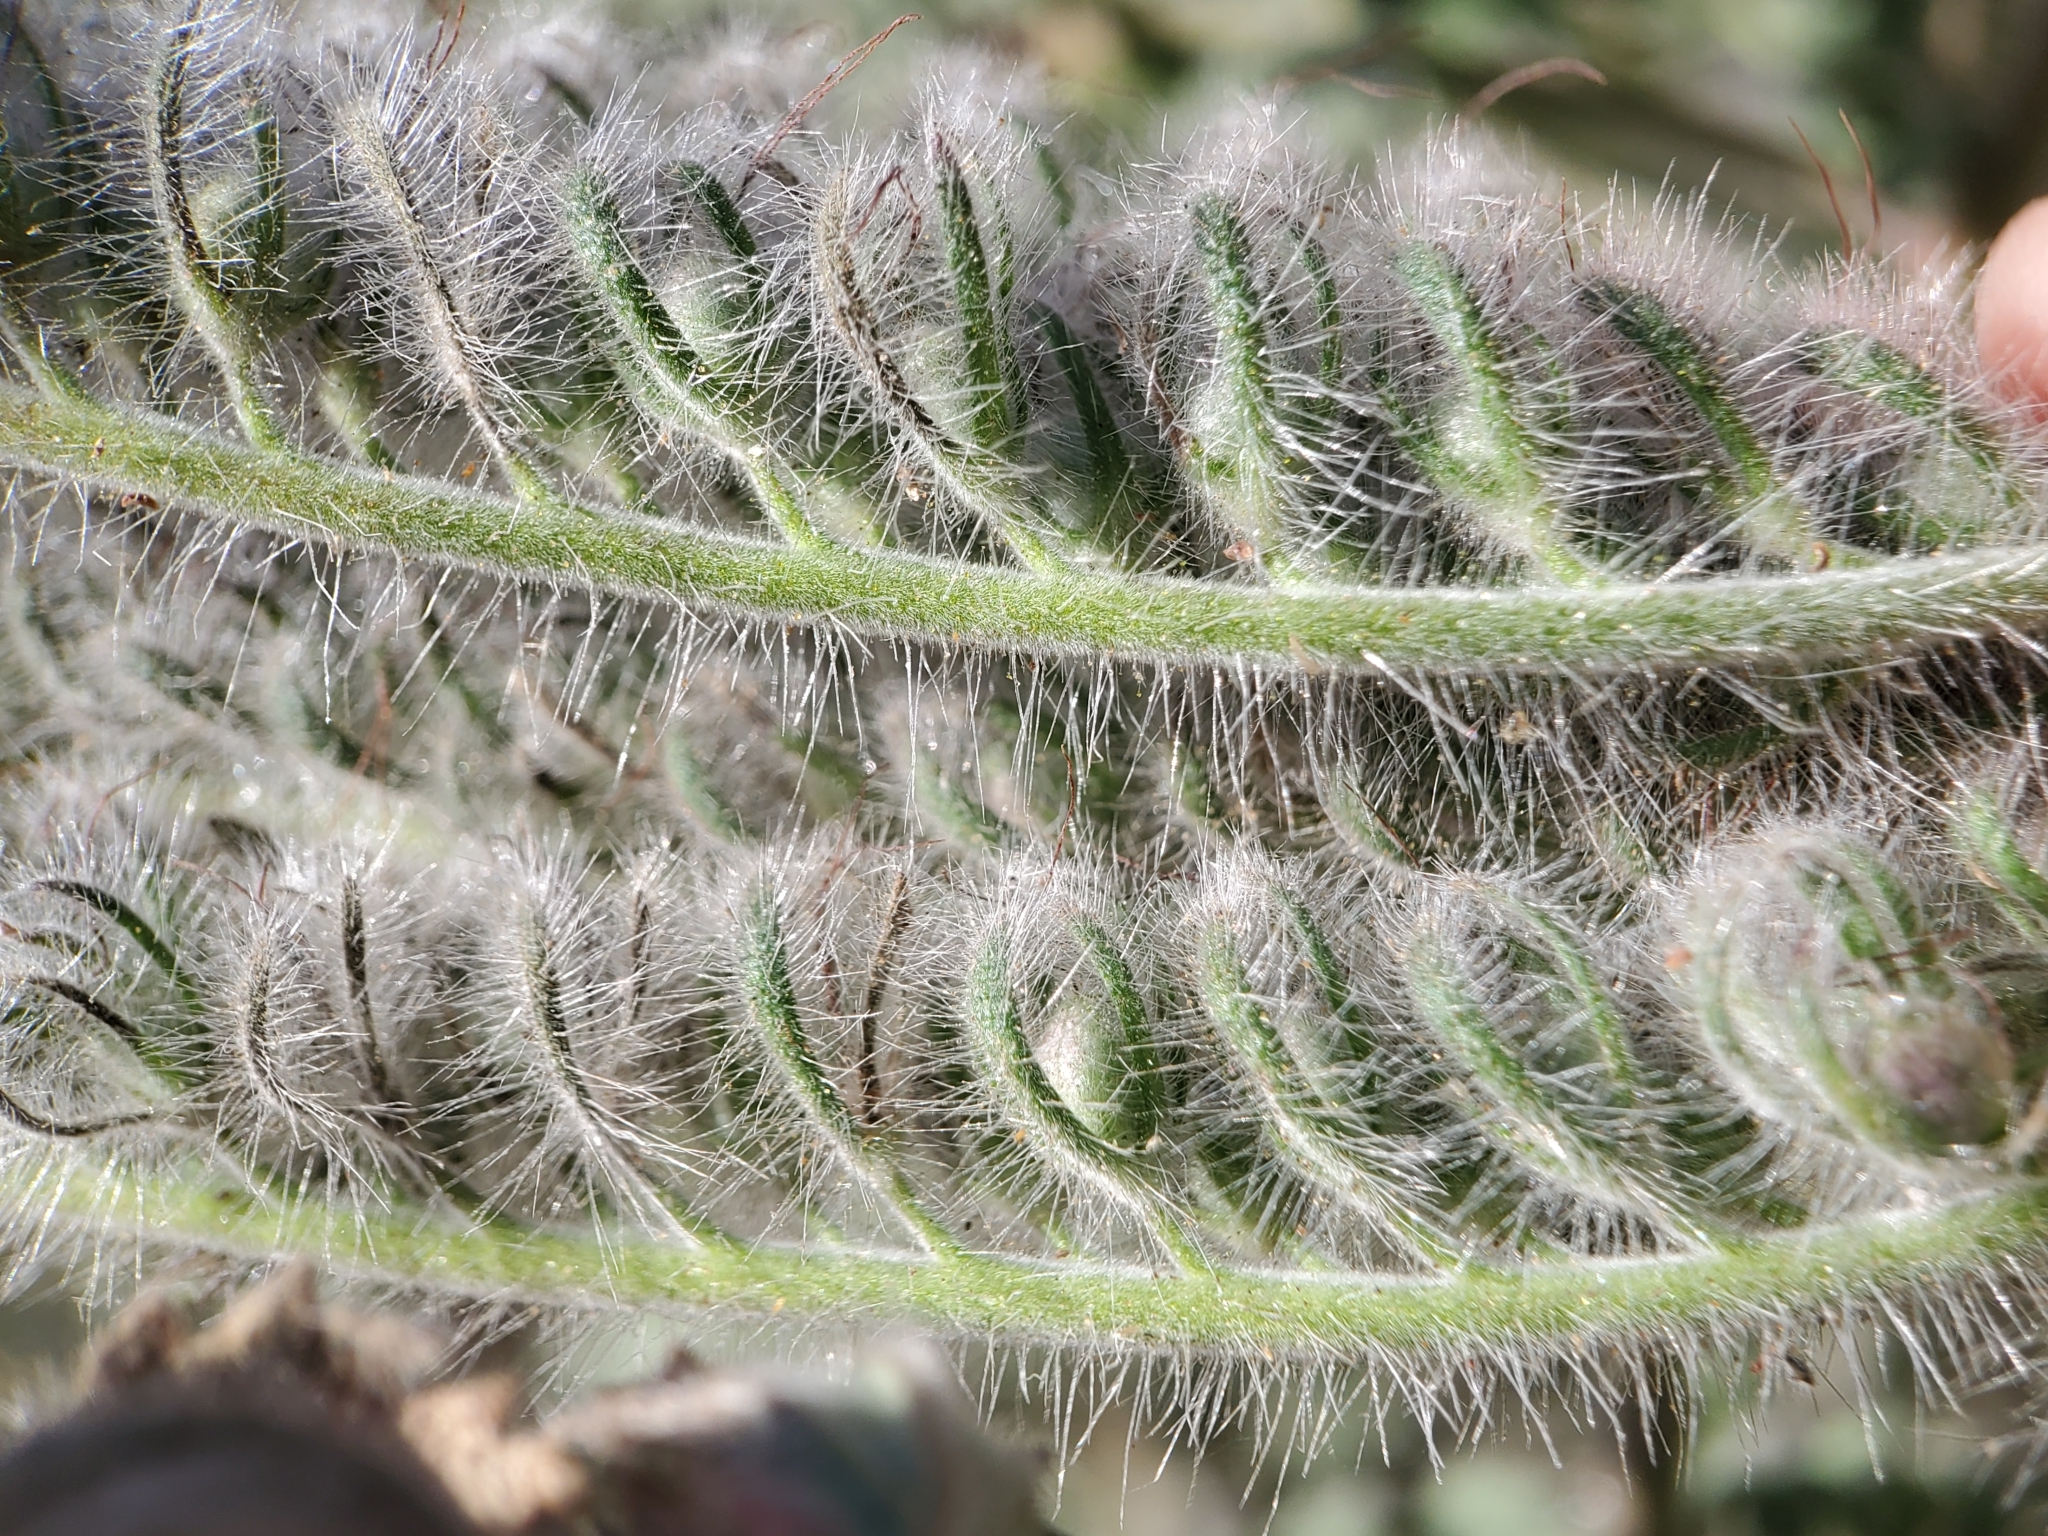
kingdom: Plantae
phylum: Tracheophyta
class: Magnoliopsida
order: Boraginales
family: Hydrophyllaceae
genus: Phacelia
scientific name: Phacelia hubbyi
